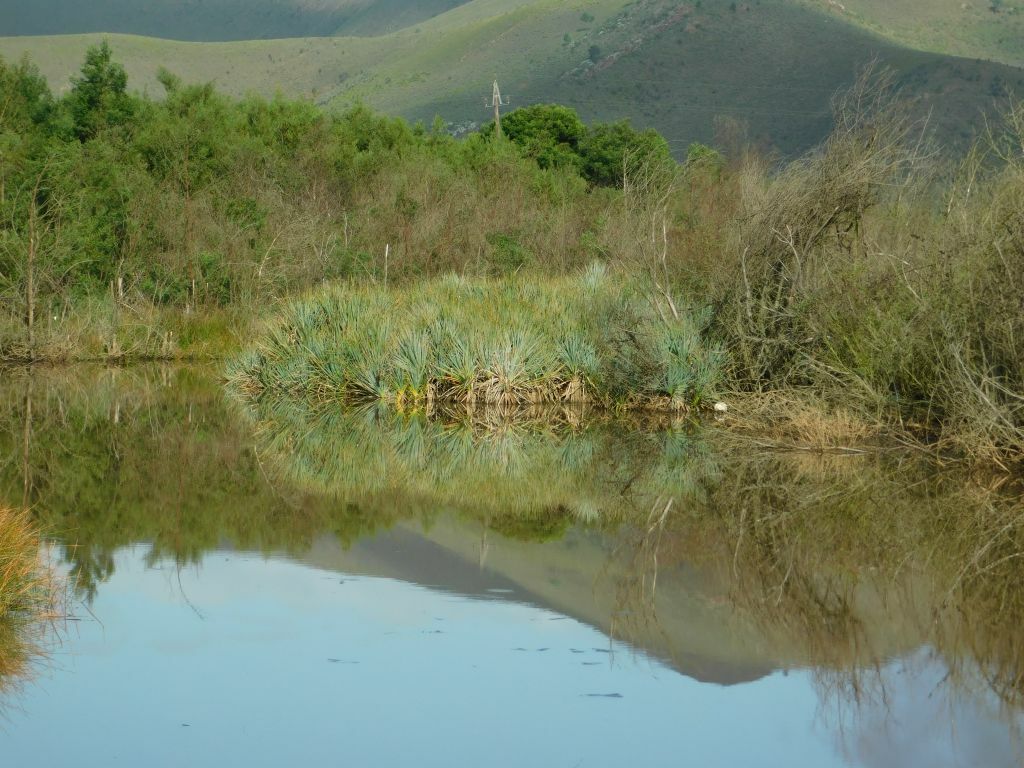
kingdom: Plantae
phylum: Tracheophyta
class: Liliopsida
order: Poales
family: Thurniaceae
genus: Prionium
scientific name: Prionium serratum
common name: Palmiet
